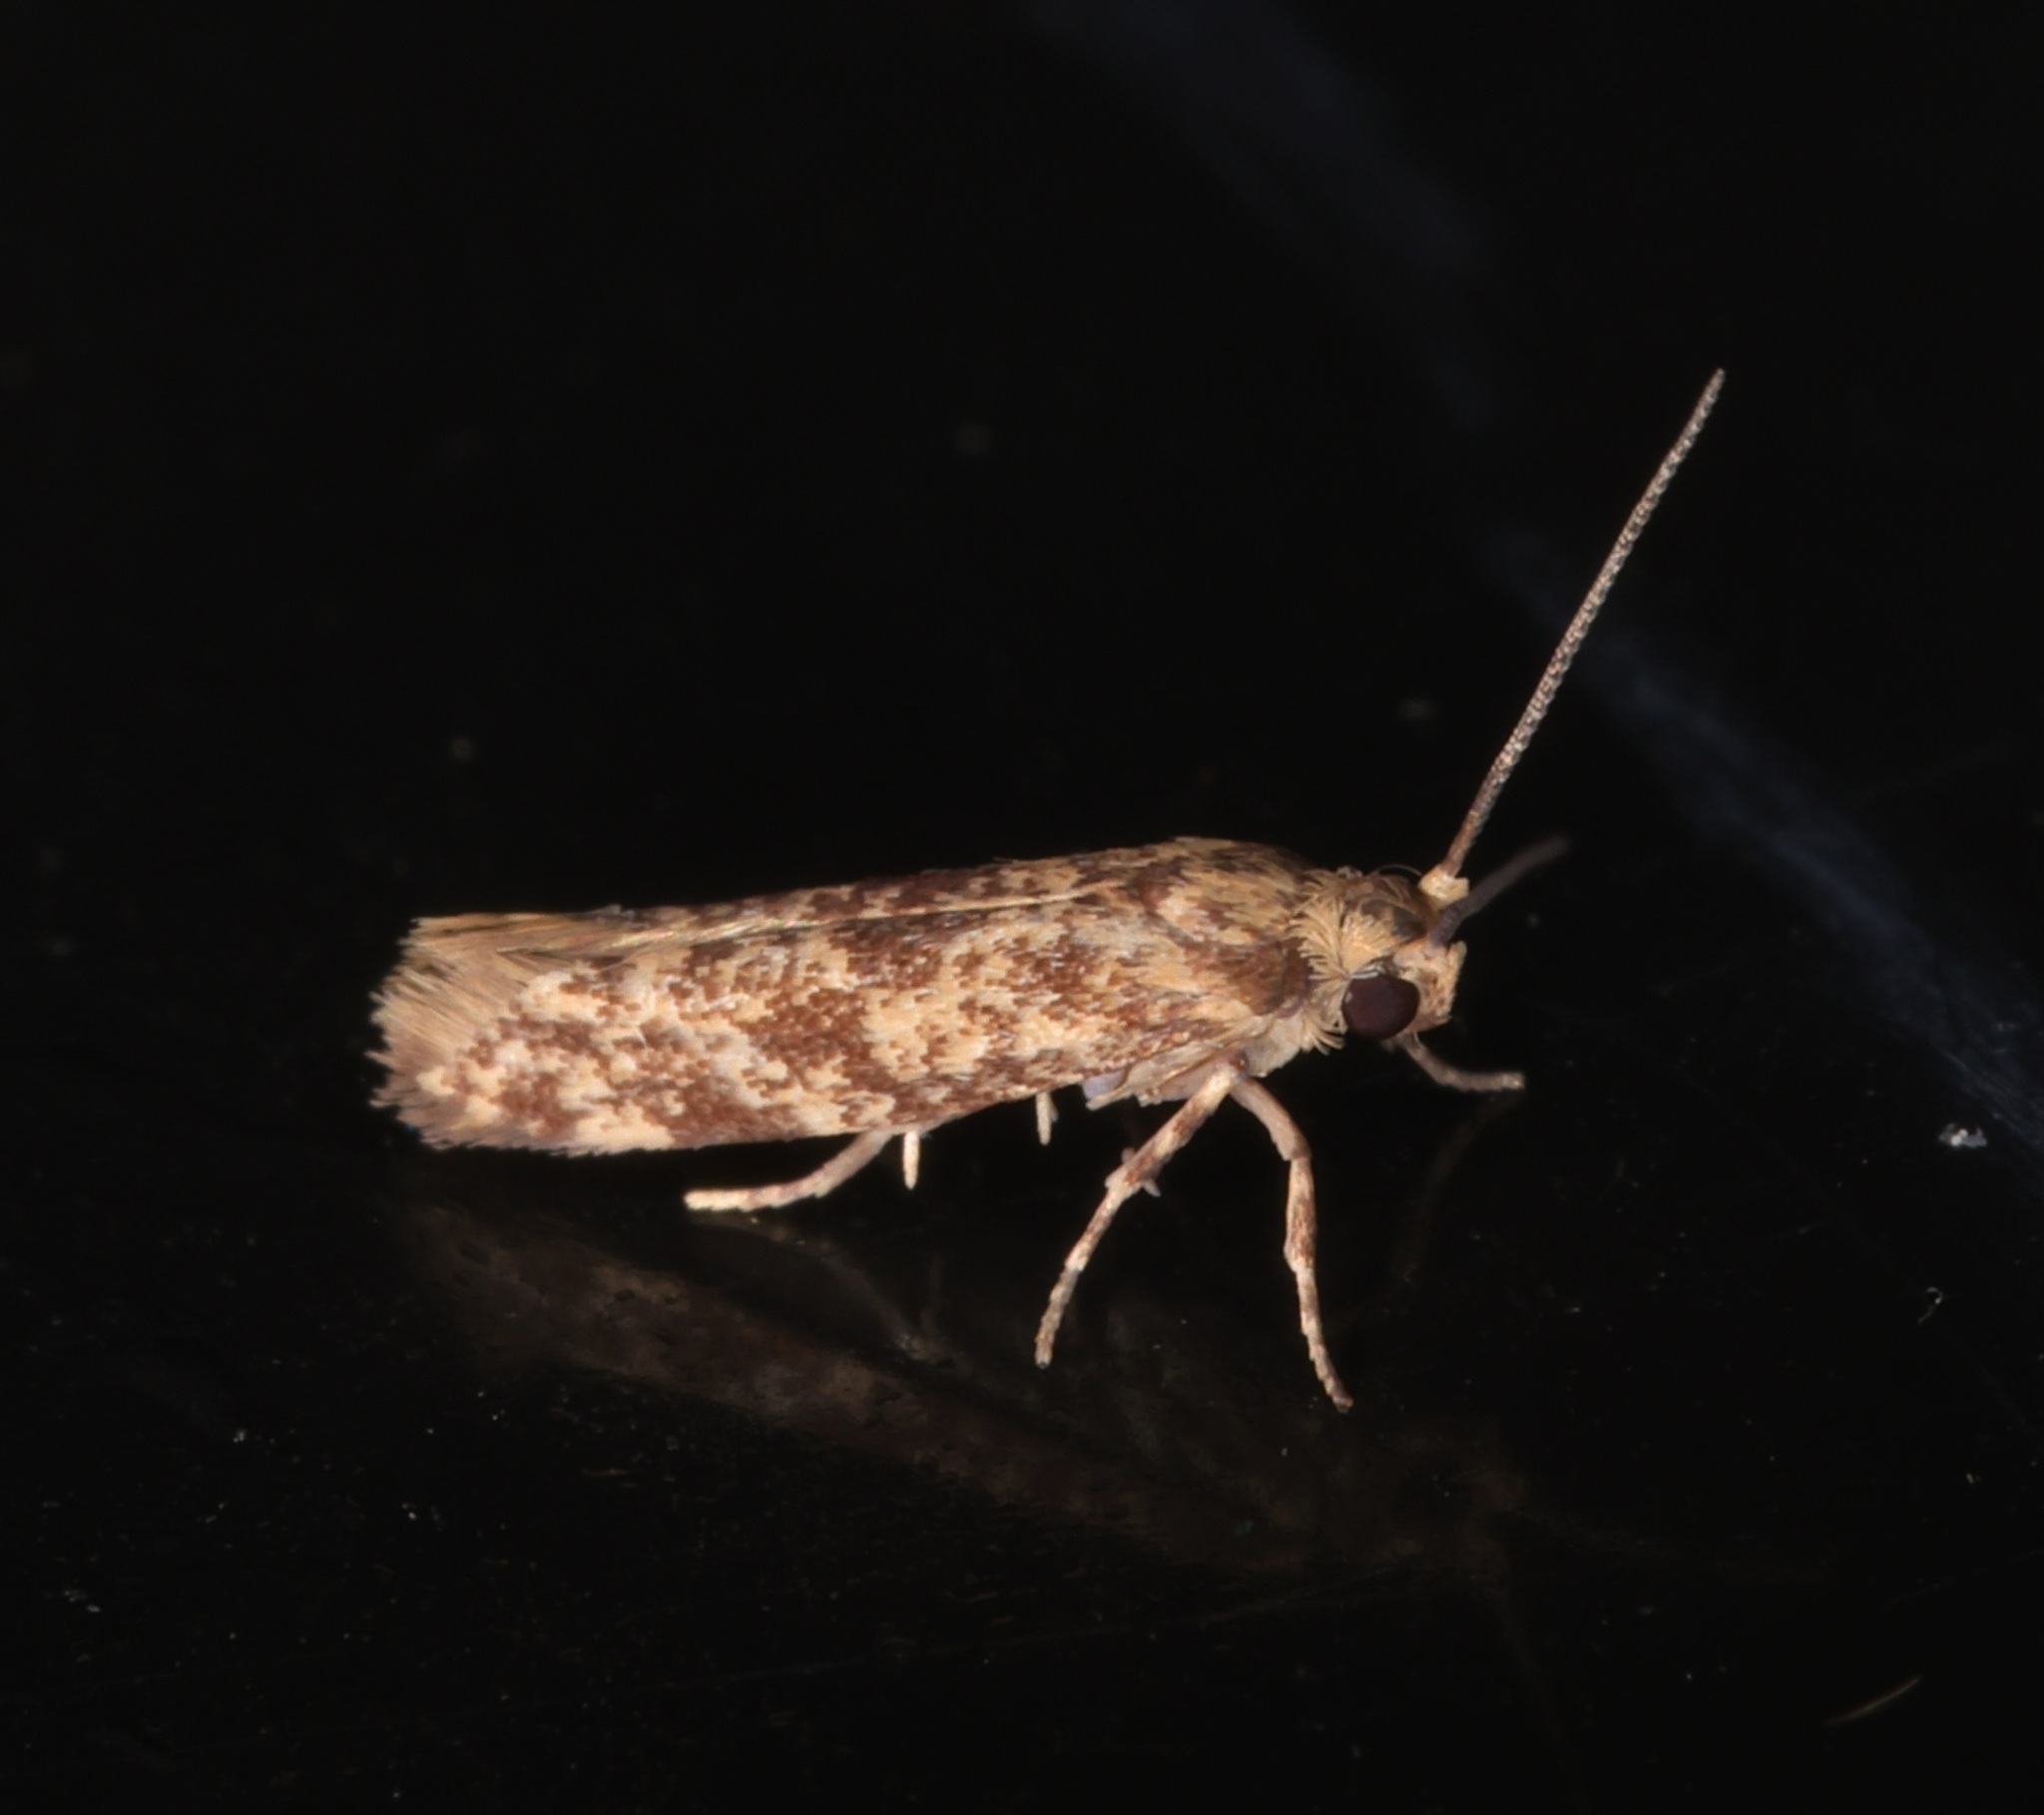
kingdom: Animalia
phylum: Arthropoda
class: Insecta
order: Lepidoptera
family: Praydidae
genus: Prays
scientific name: Prays
